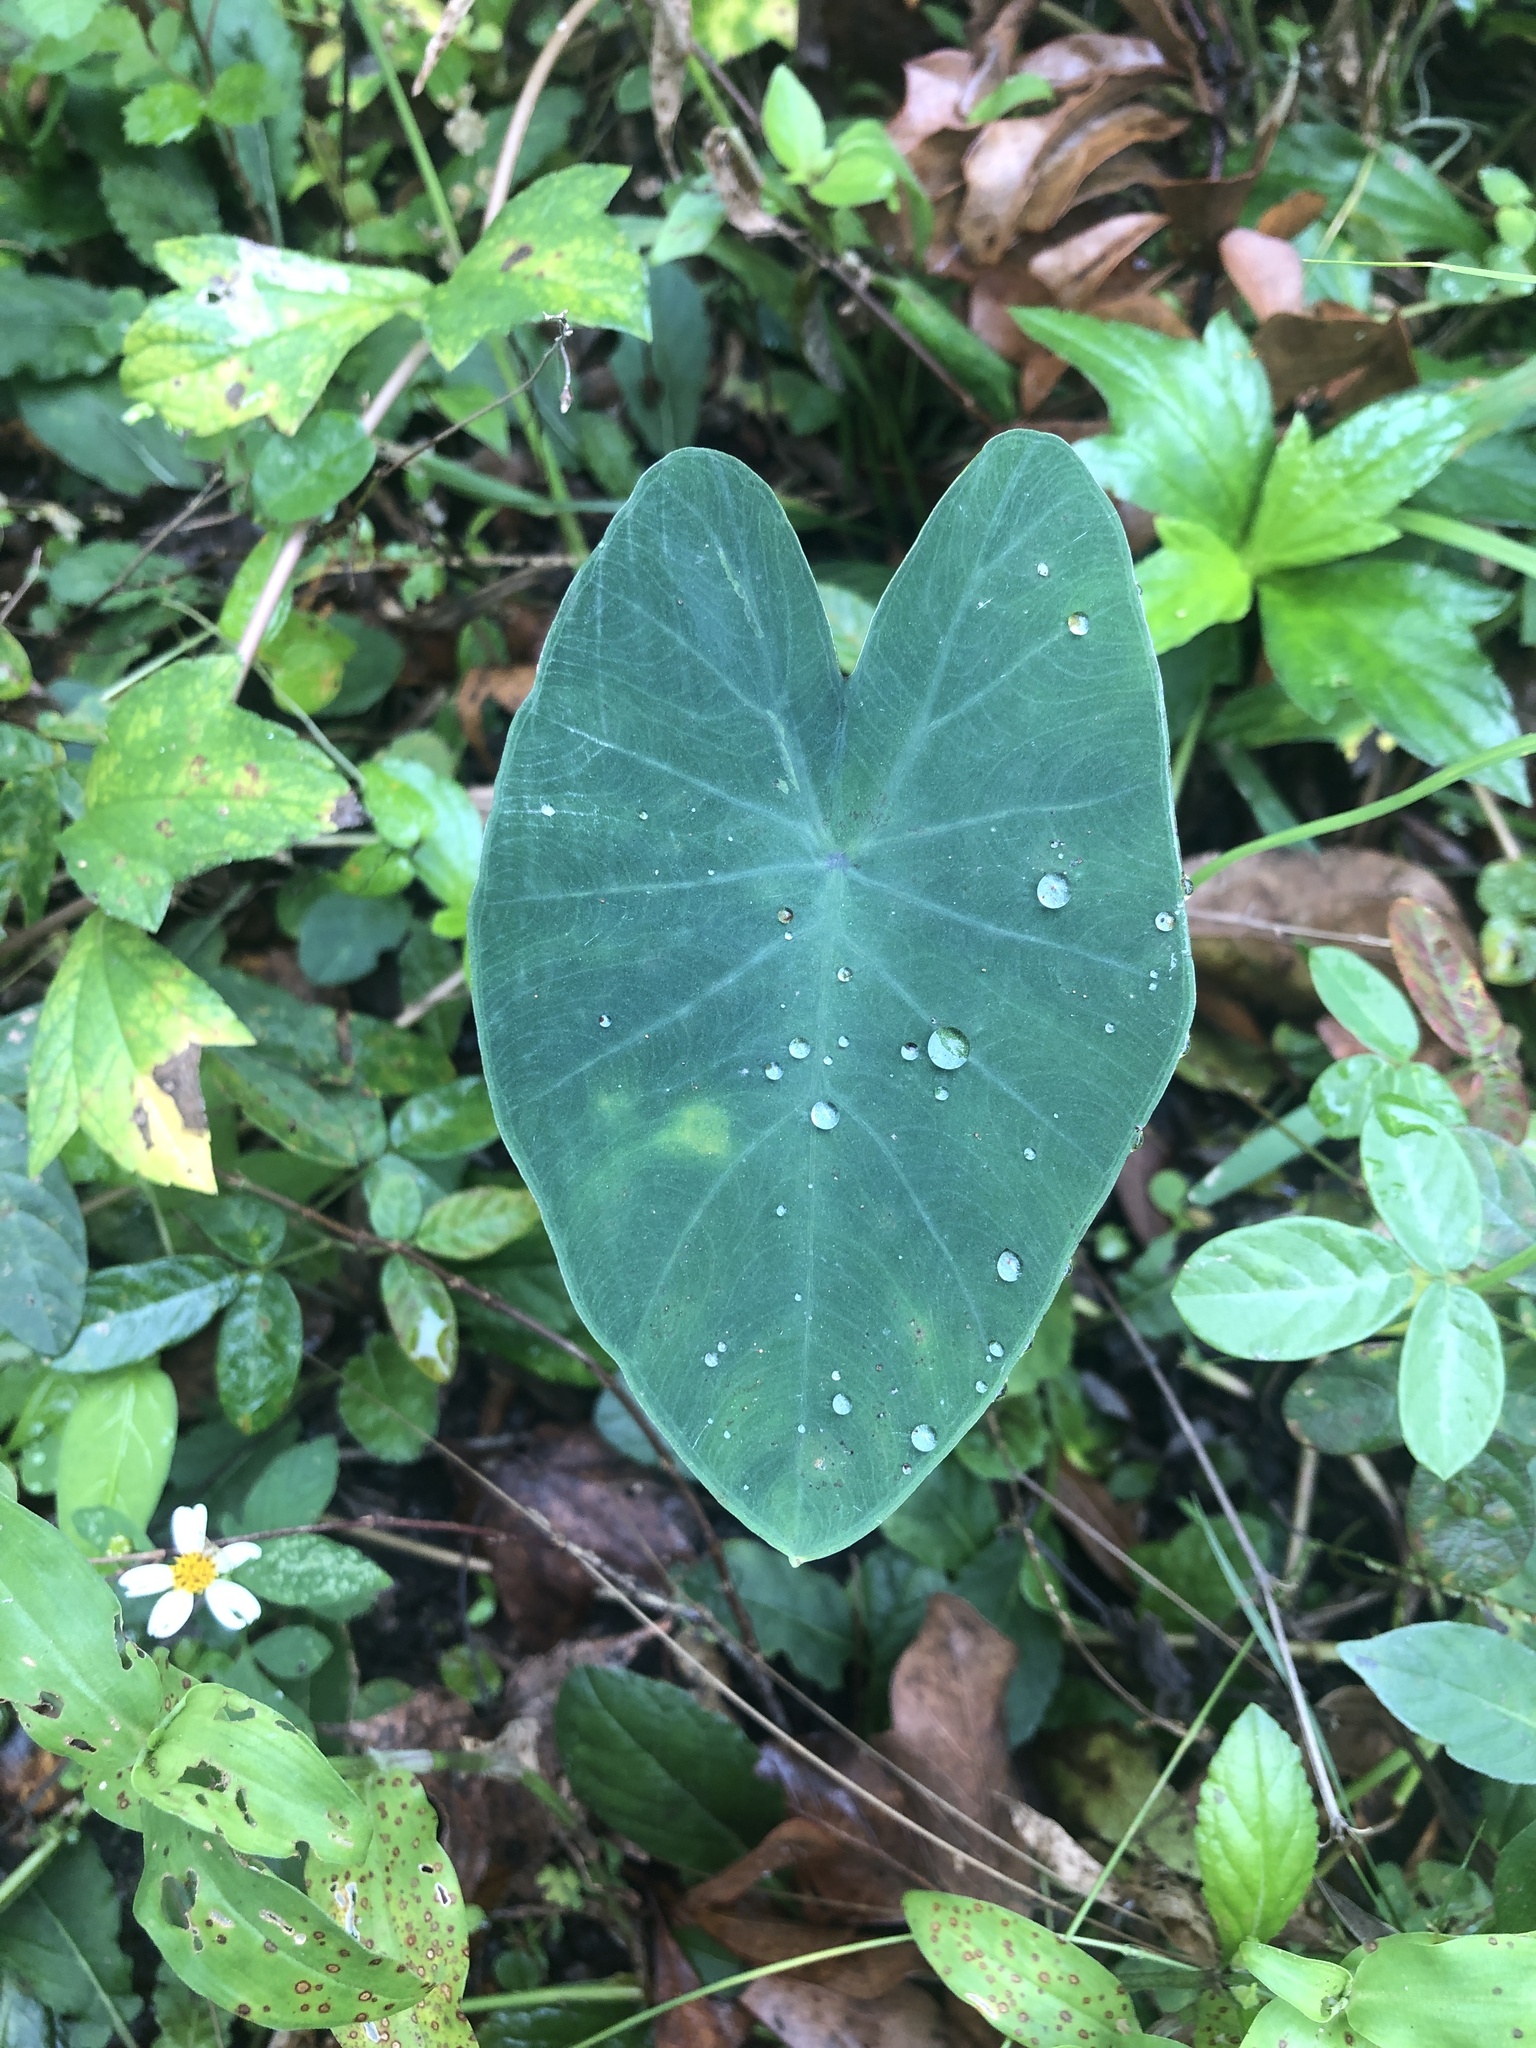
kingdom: Plantae
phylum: Tracheophyta
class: Liliopsida
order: Alismatales
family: Araceae
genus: Colocasia
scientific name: Colocasia esculenta
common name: Taro
